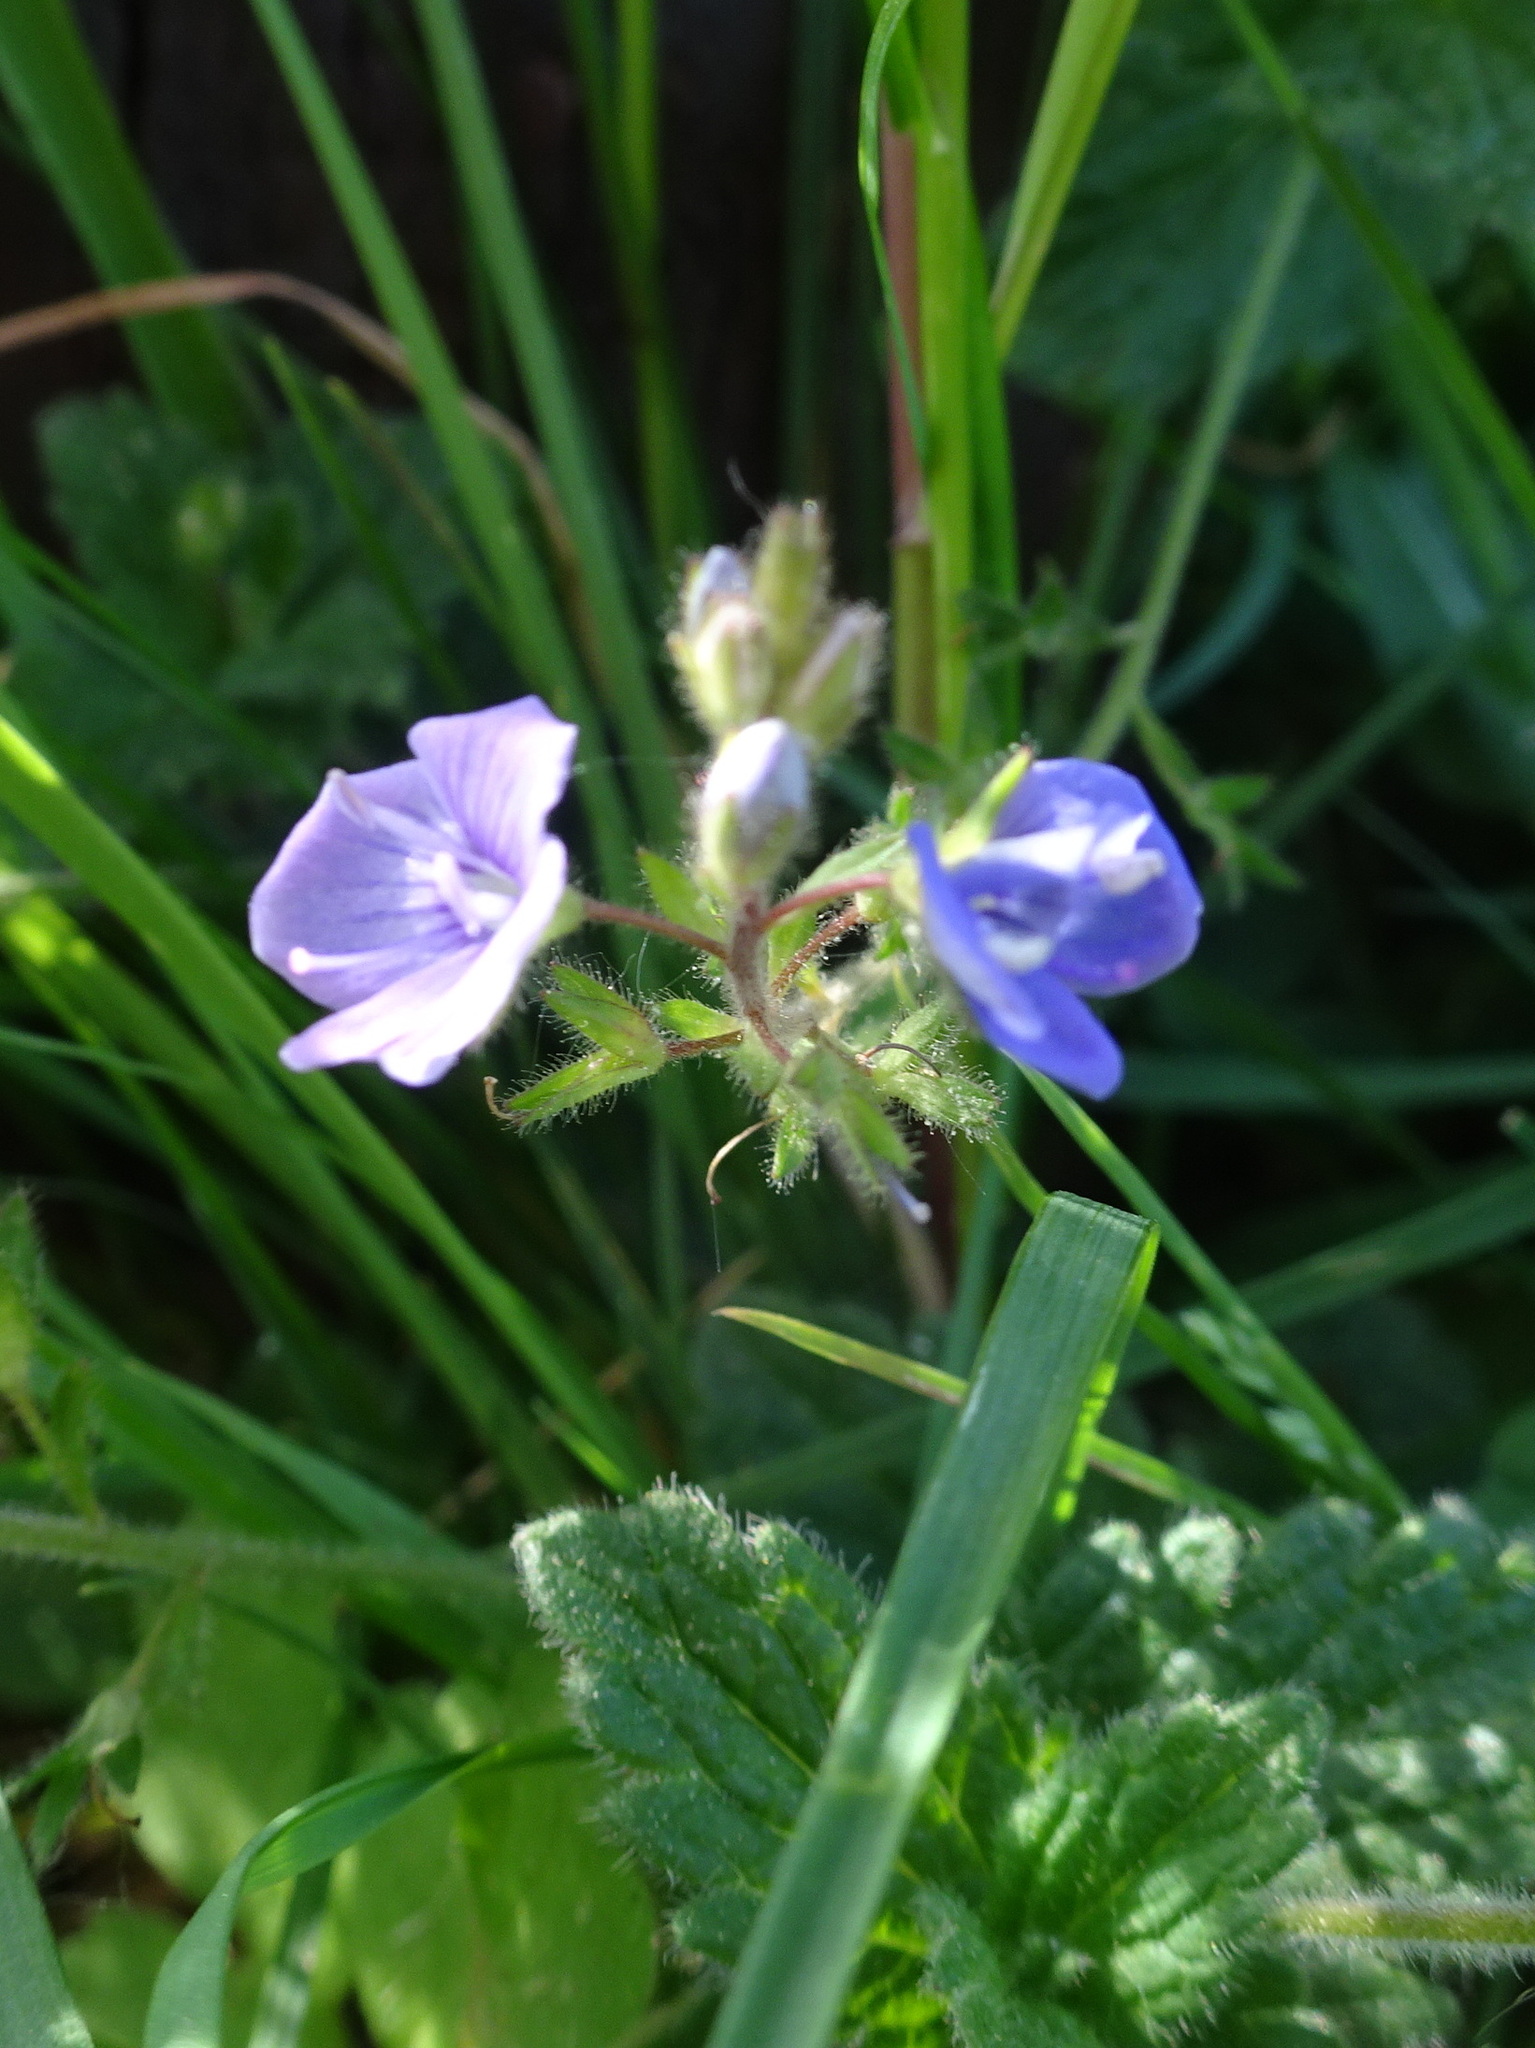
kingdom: Plantae
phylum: Tracheophyta
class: Magnoliopsida
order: Lamiales
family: Plantaginaceae
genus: Veronica
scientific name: Veronica chamaedrys
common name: Germander speedwell
